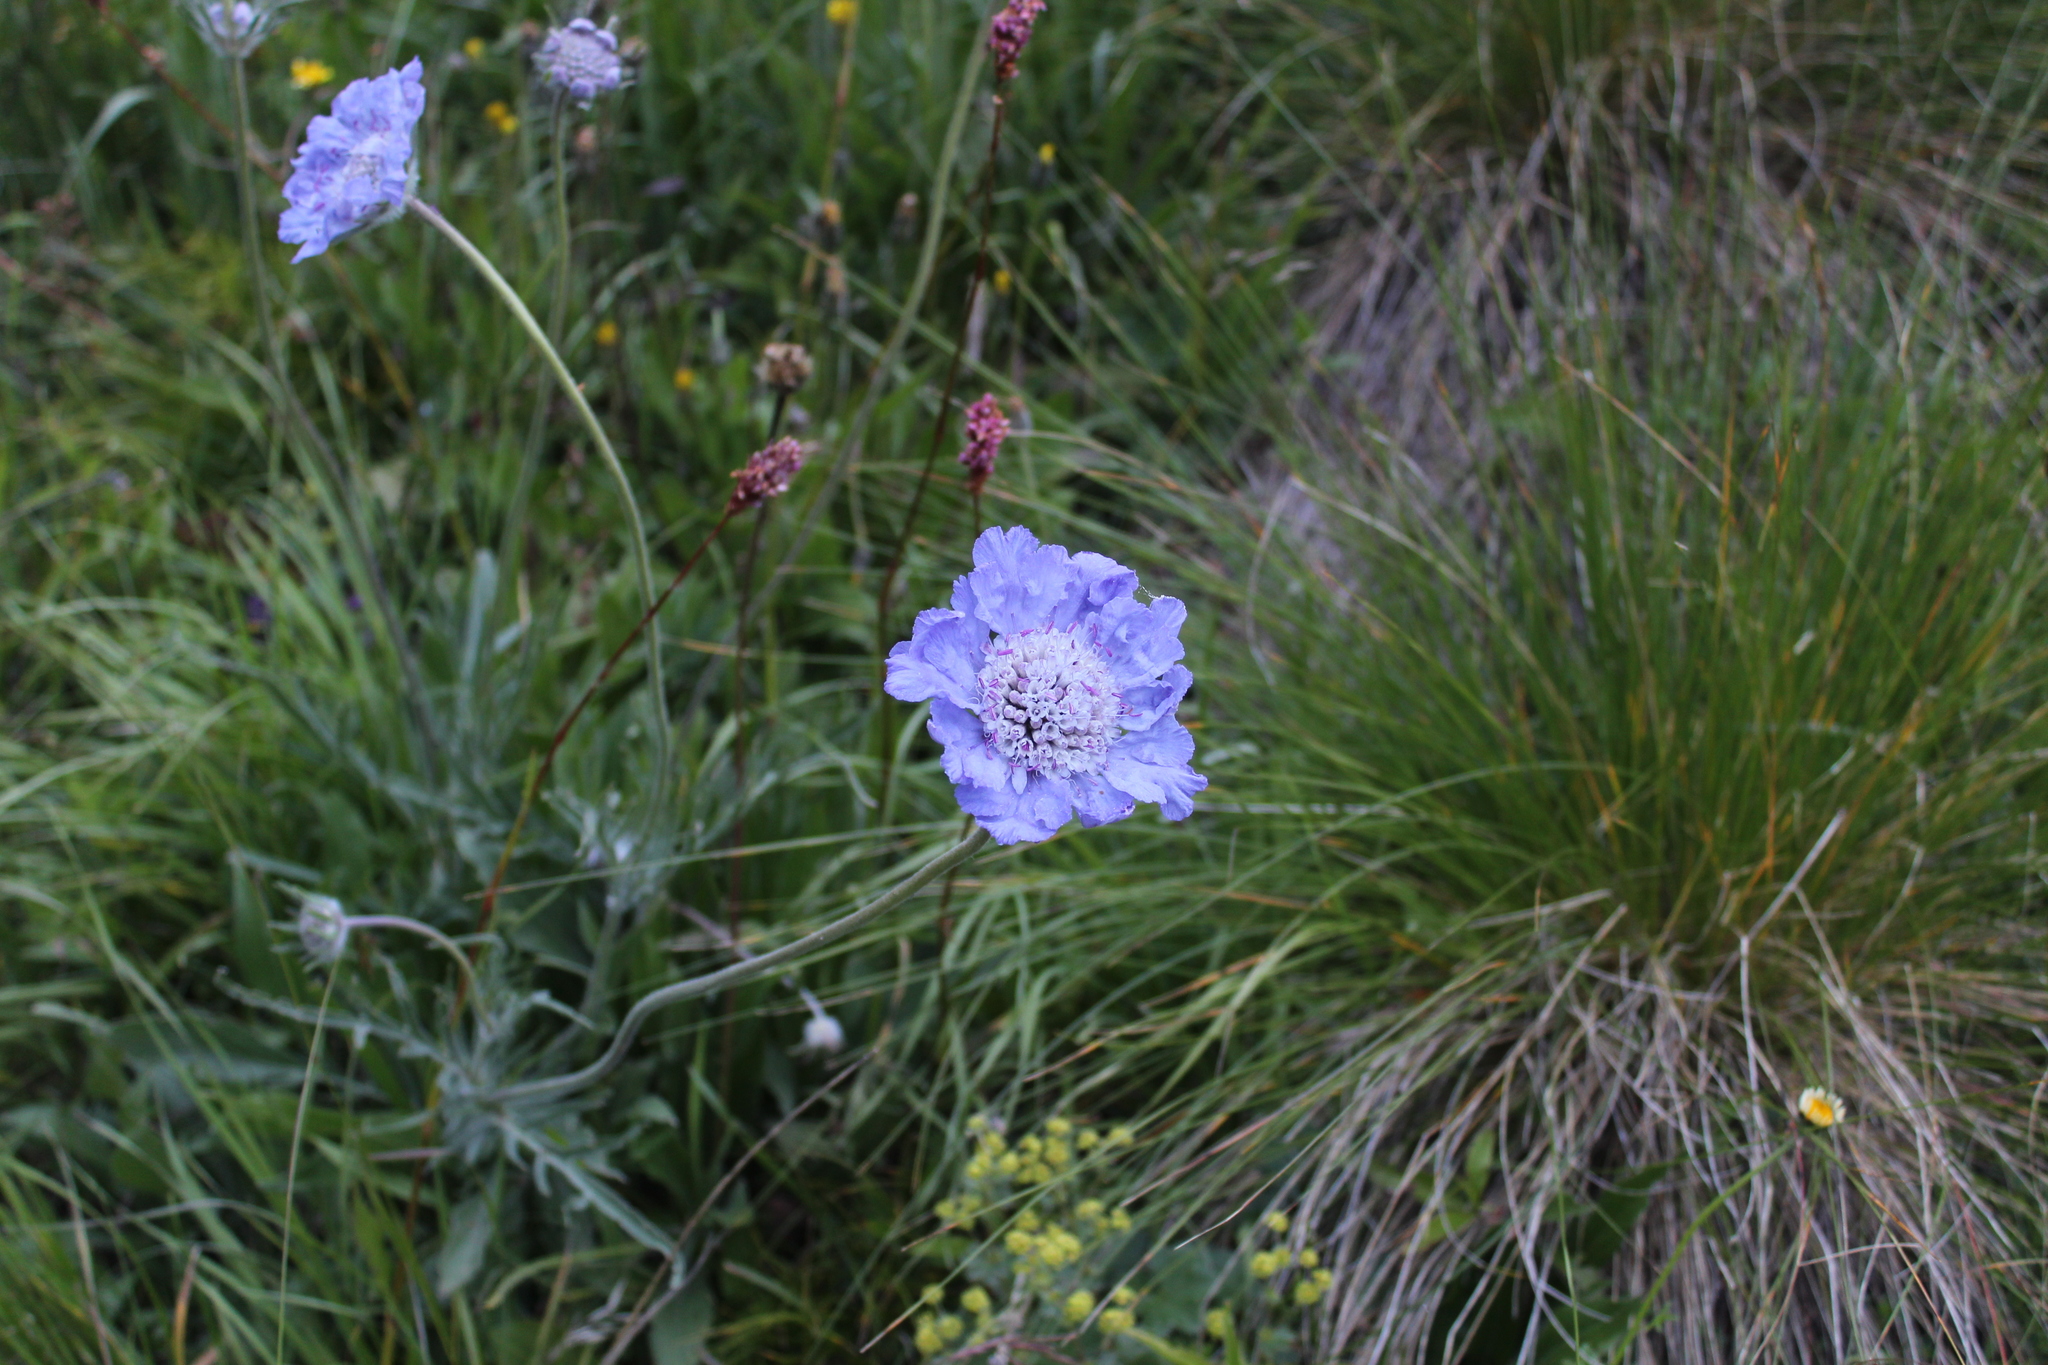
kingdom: Plantae
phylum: Tracheophyta
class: Magnoliopsida
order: Dipsacales
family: Caprifoliaceae
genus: Lomelosia
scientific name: Lomelosia caucasica
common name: Pincushion-flower
